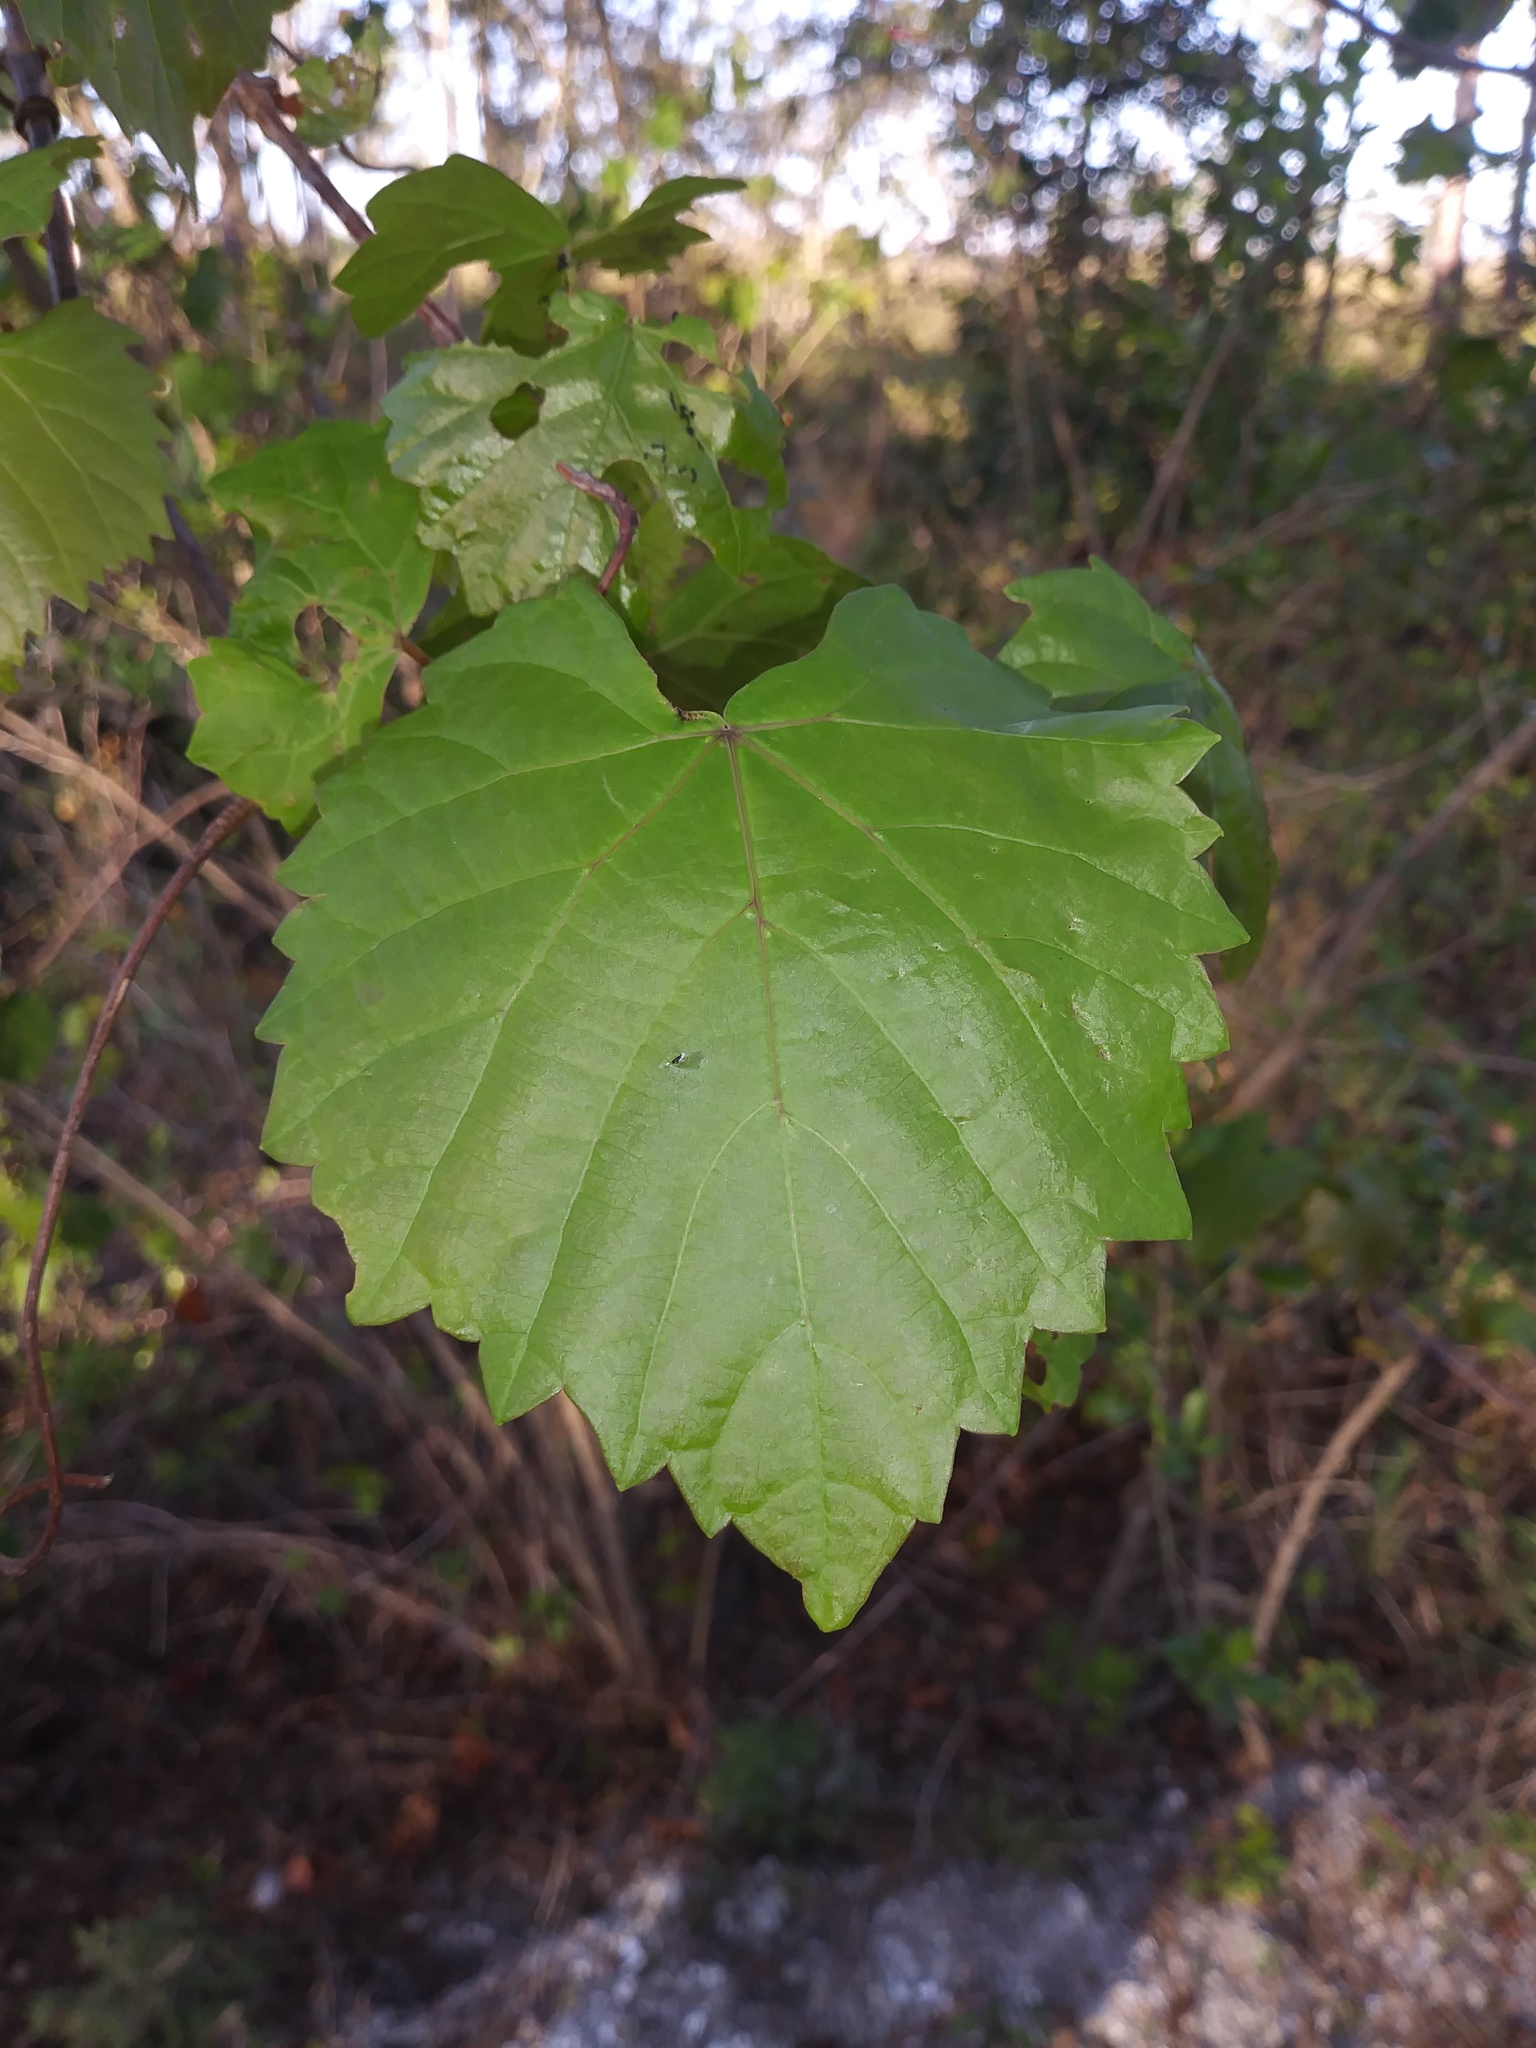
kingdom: Plantae
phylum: Tracheophyta
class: Magnoliopsida
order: Vitales
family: Vitaceae
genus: Vitis
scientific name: Vitis rotundifolia
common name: Muscadine grape
